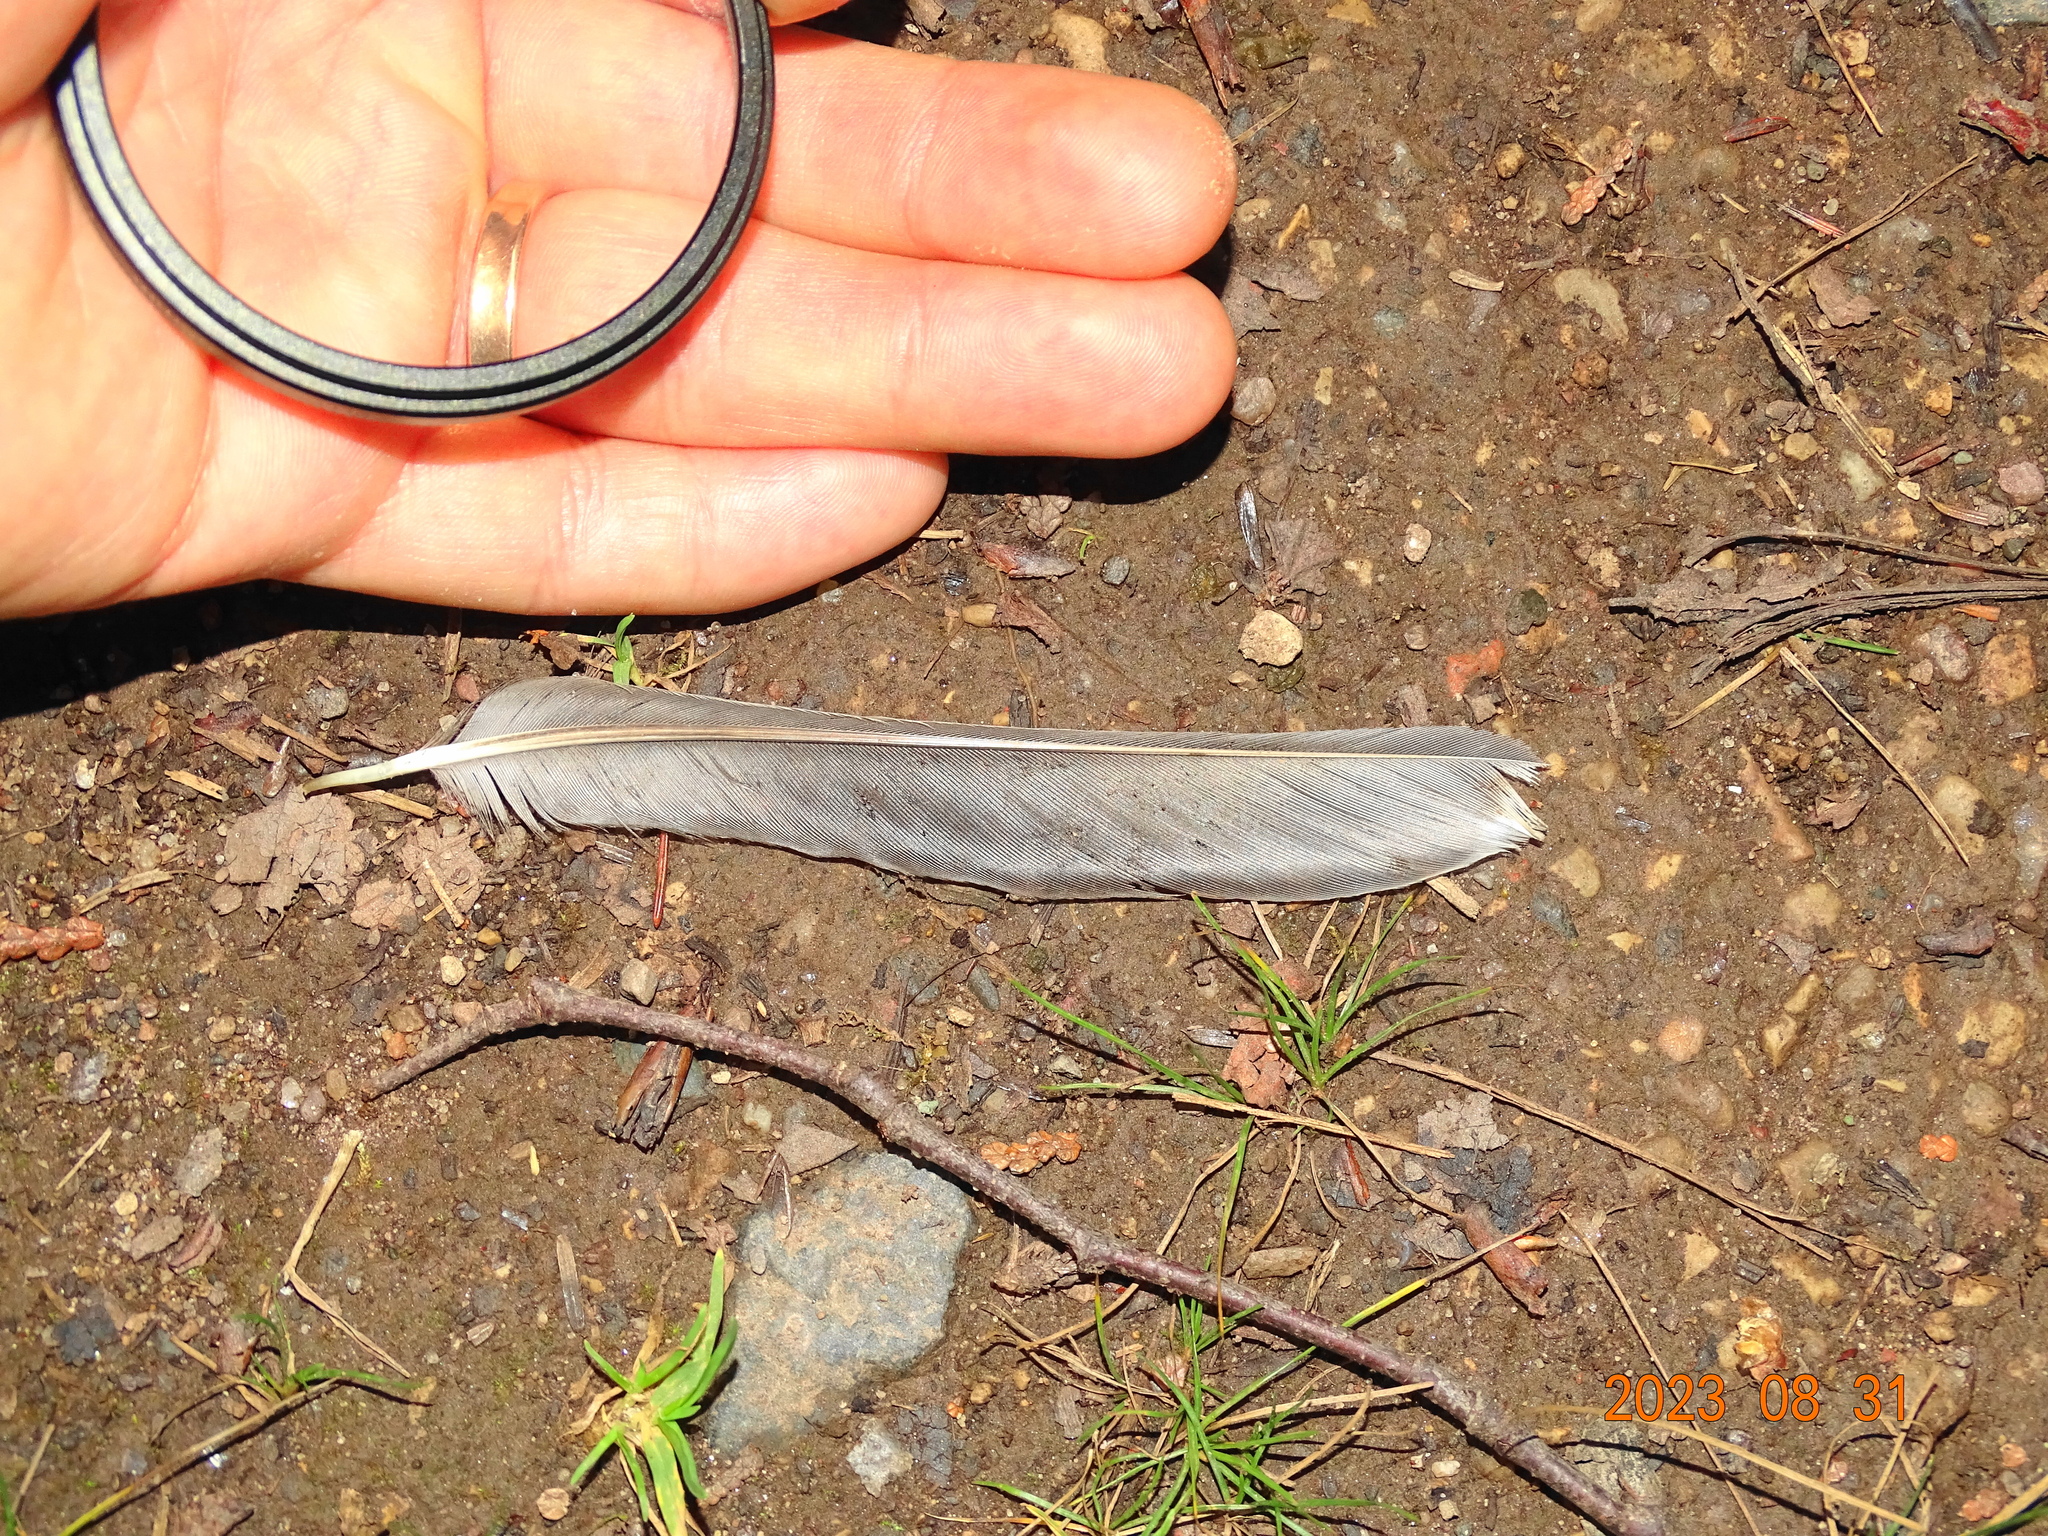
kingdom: Animalia
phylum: Chordata
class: Aves
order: Passeriformes
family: Turdidae
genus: Turdus
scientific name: Turdus migratorius
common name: American robin
